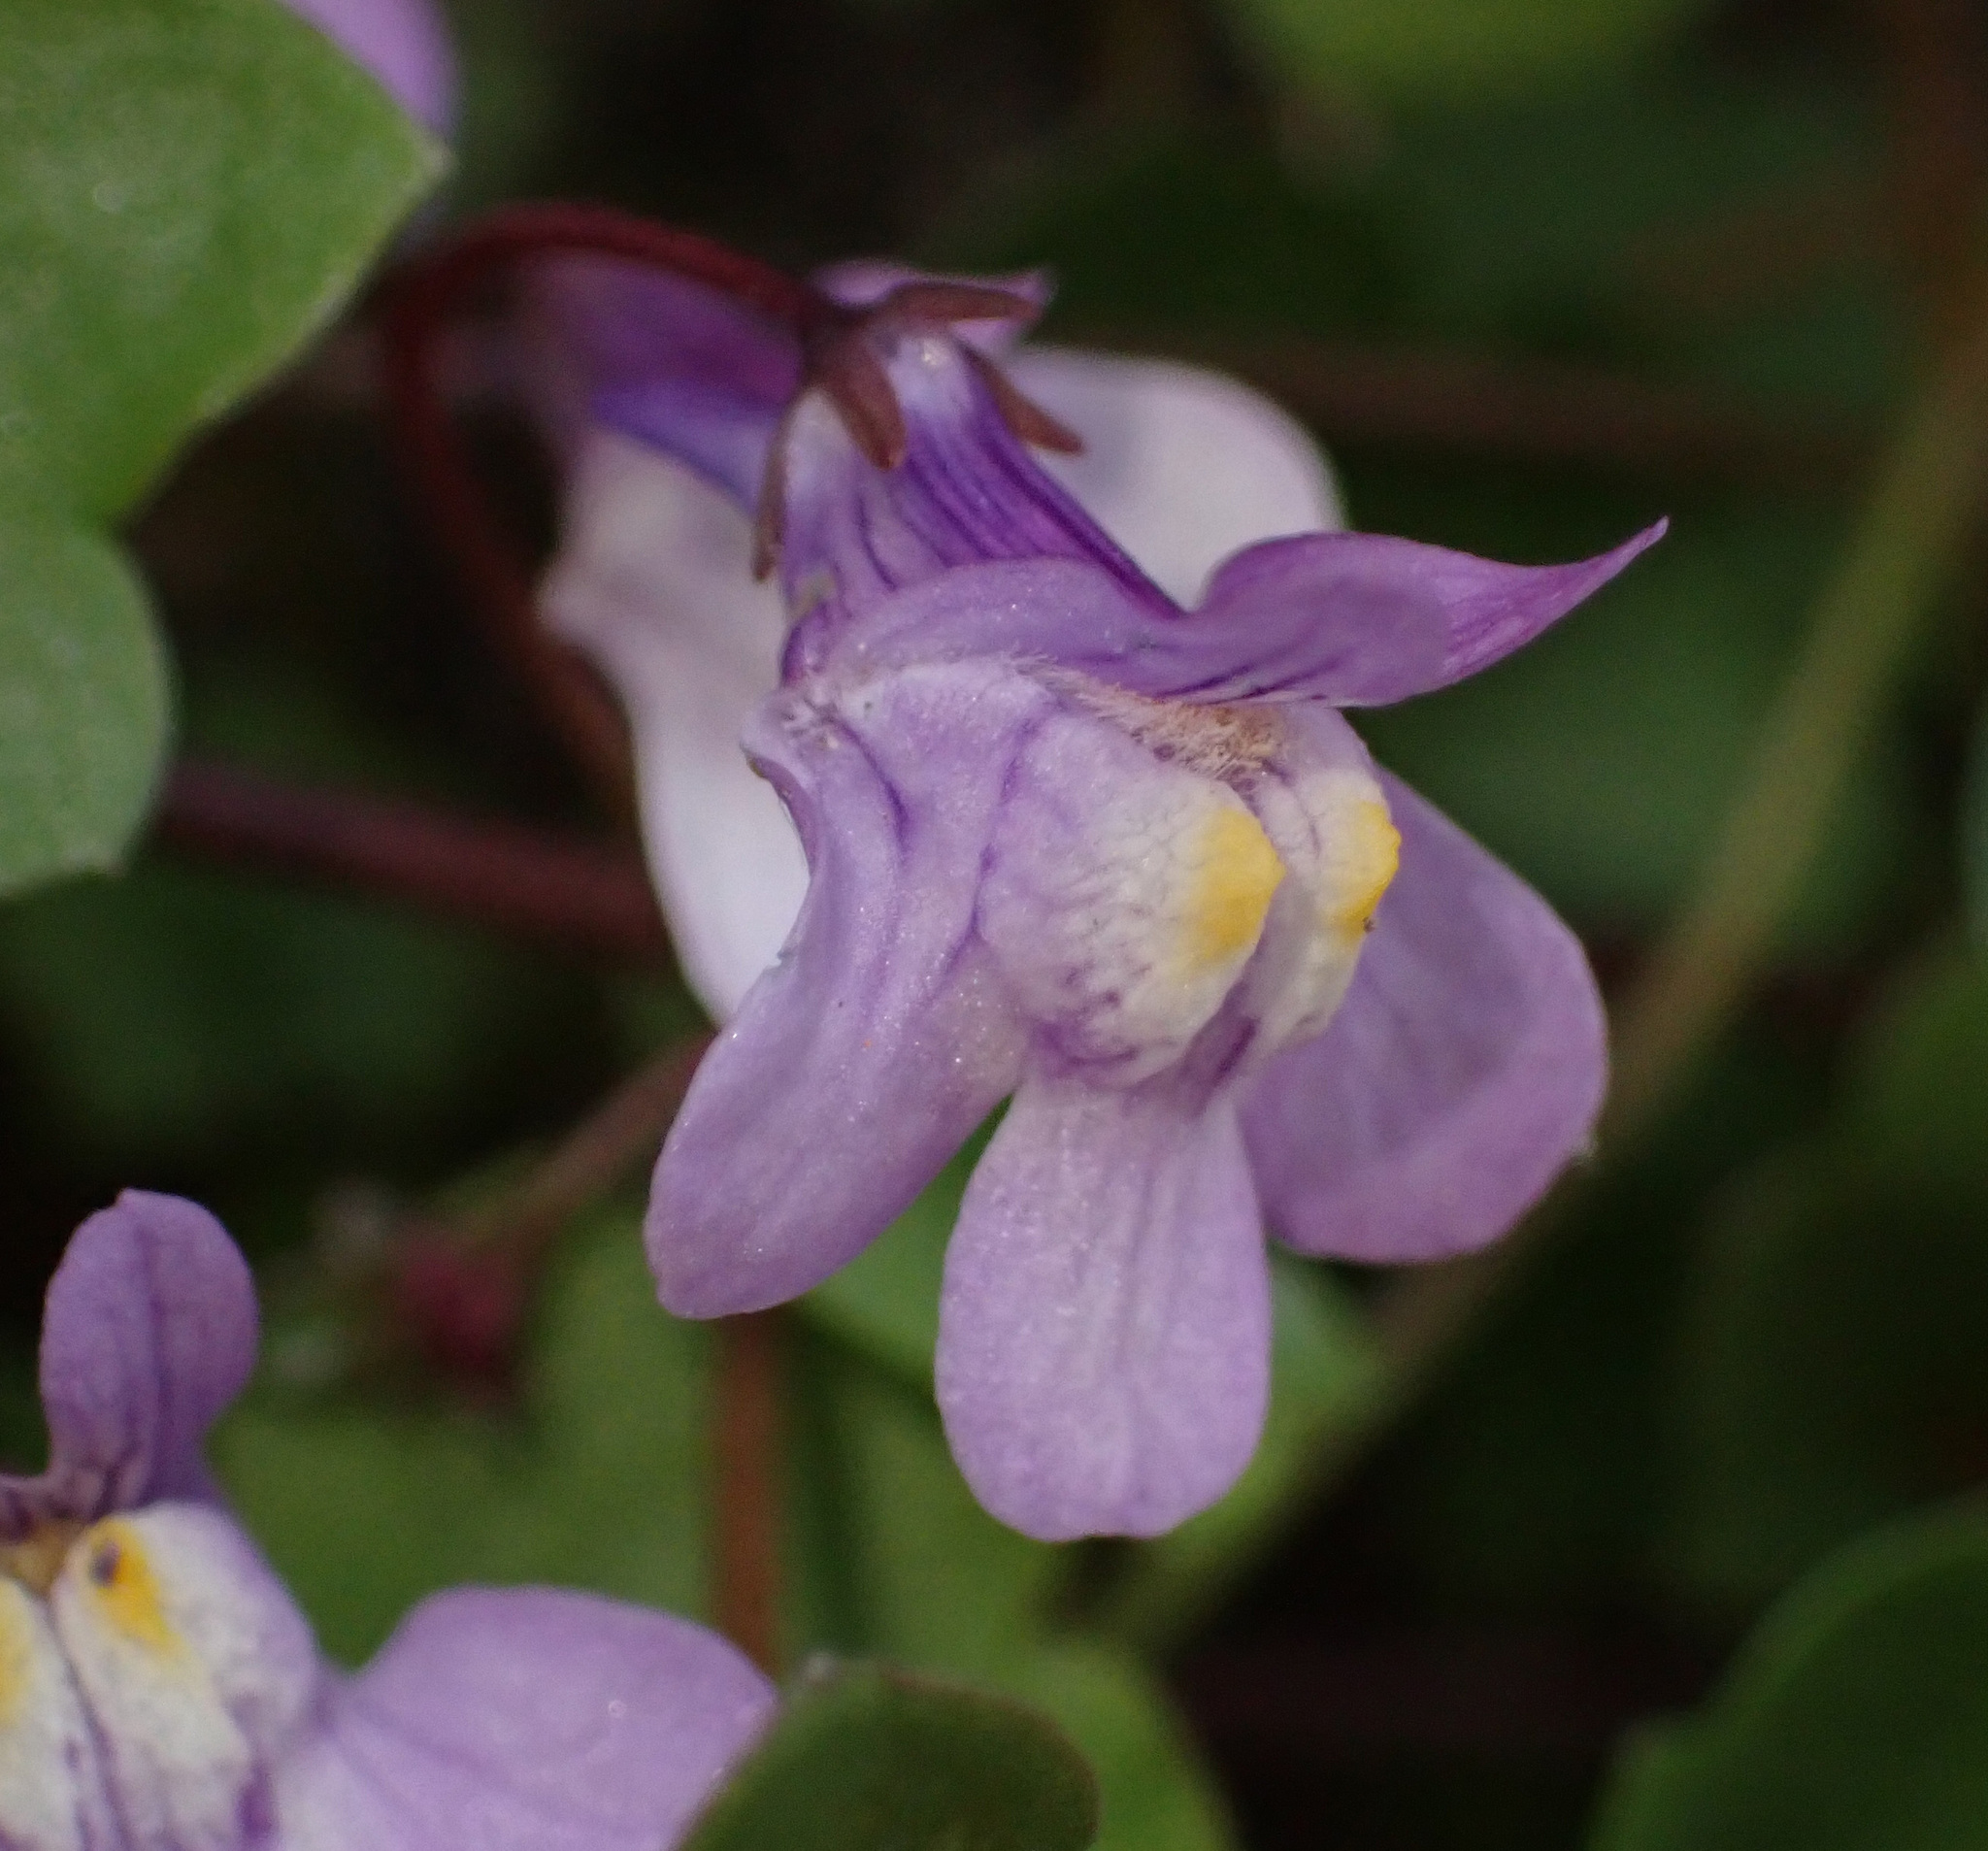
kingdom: Plantae
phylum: Tracheophyta
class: Magnoliopsida
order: Lamiales
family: Plantaginaceae
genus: Cymbalaria
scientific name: Cymbalaria muralis
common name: Ivy-leaved toadflax
